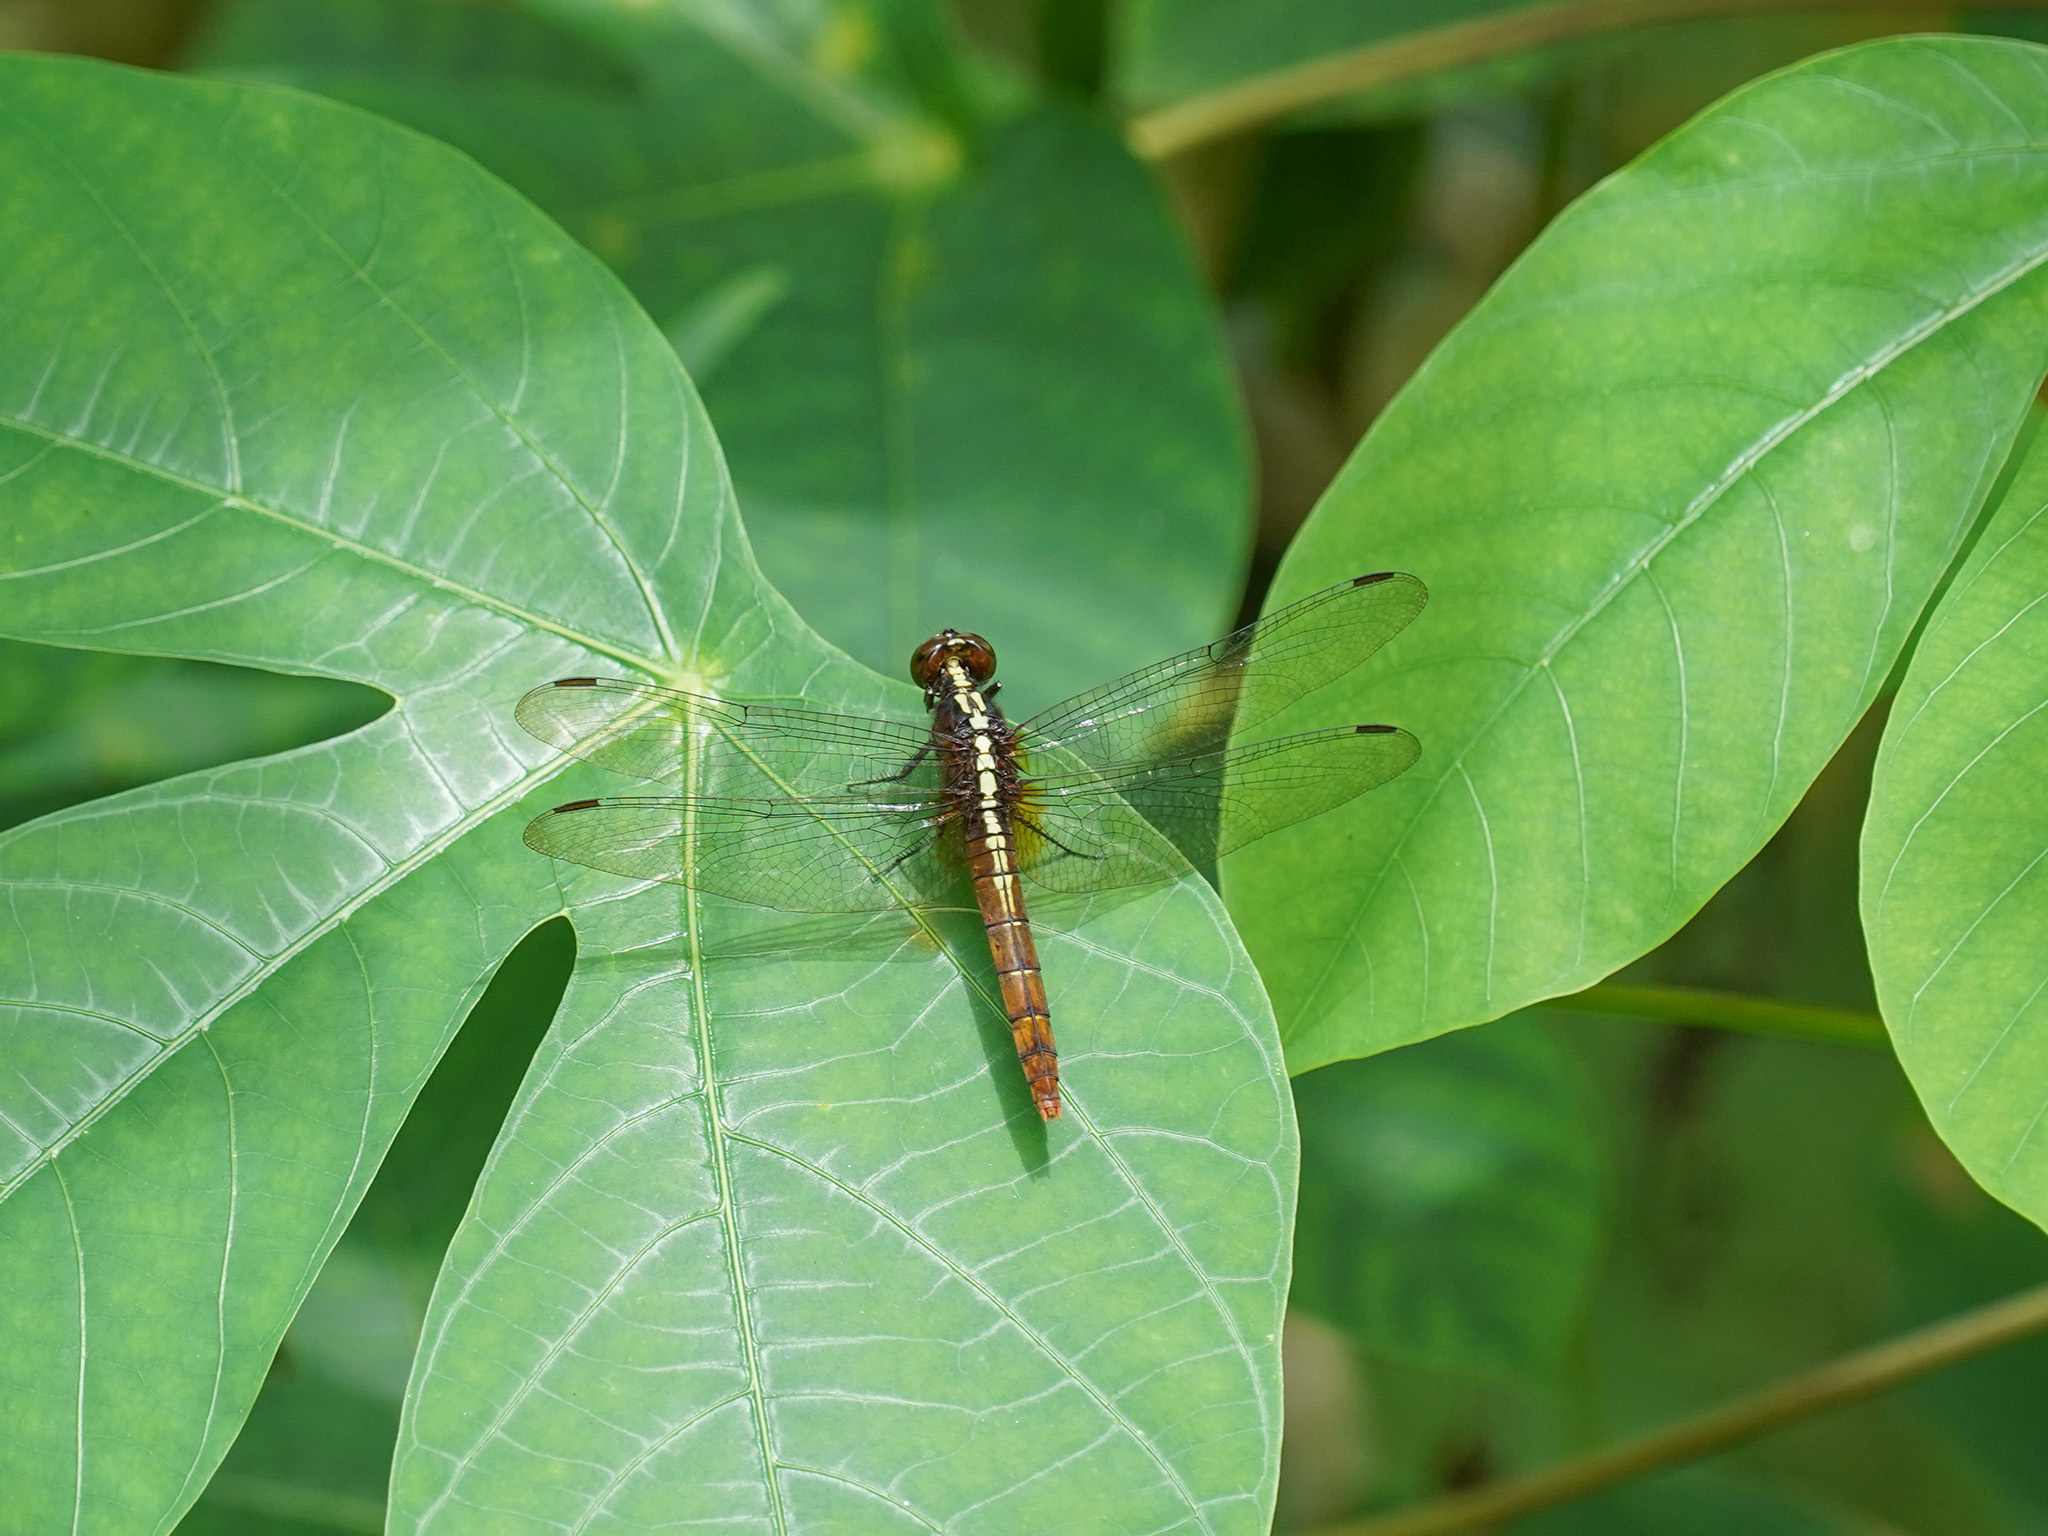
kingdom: Animalia
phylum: Arthropoda
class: Insecta
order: Odonata
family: Libellulidae
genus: Rhodothemis
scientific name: Rhodothemis rufa
